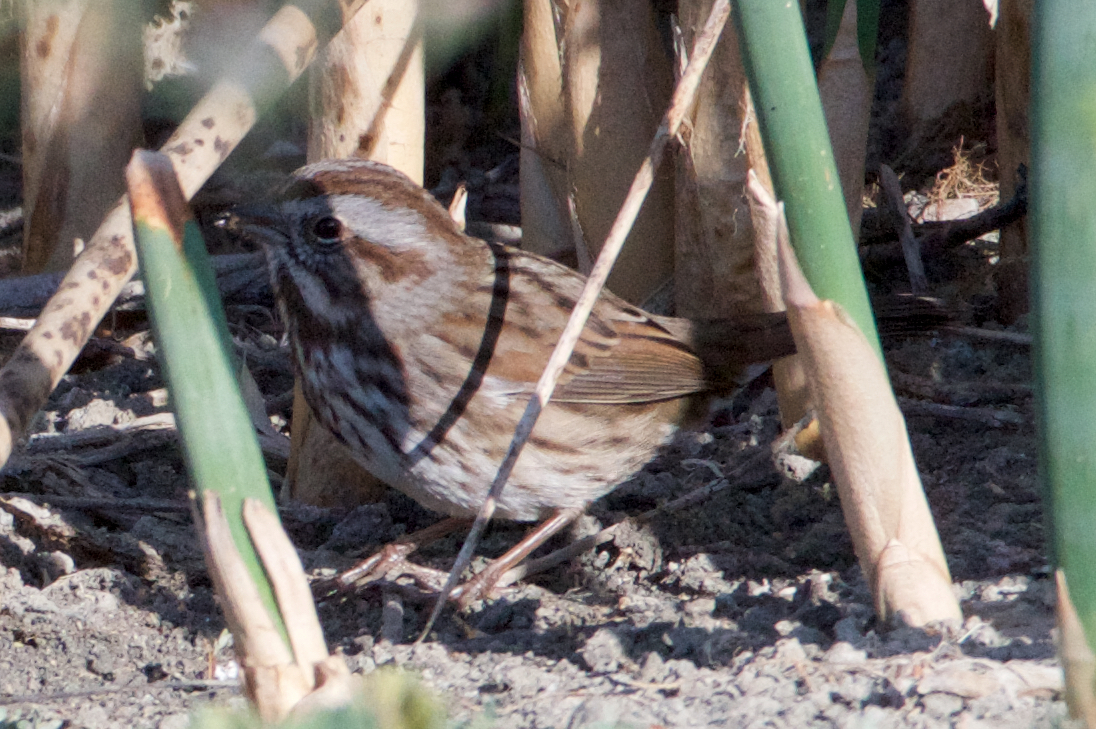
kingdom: Animalia
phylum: Chordata
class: Aves
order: Passeriformes
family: Passerellidae
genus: Melospiza
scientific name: Melospiza melodia
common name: Song sparrow
